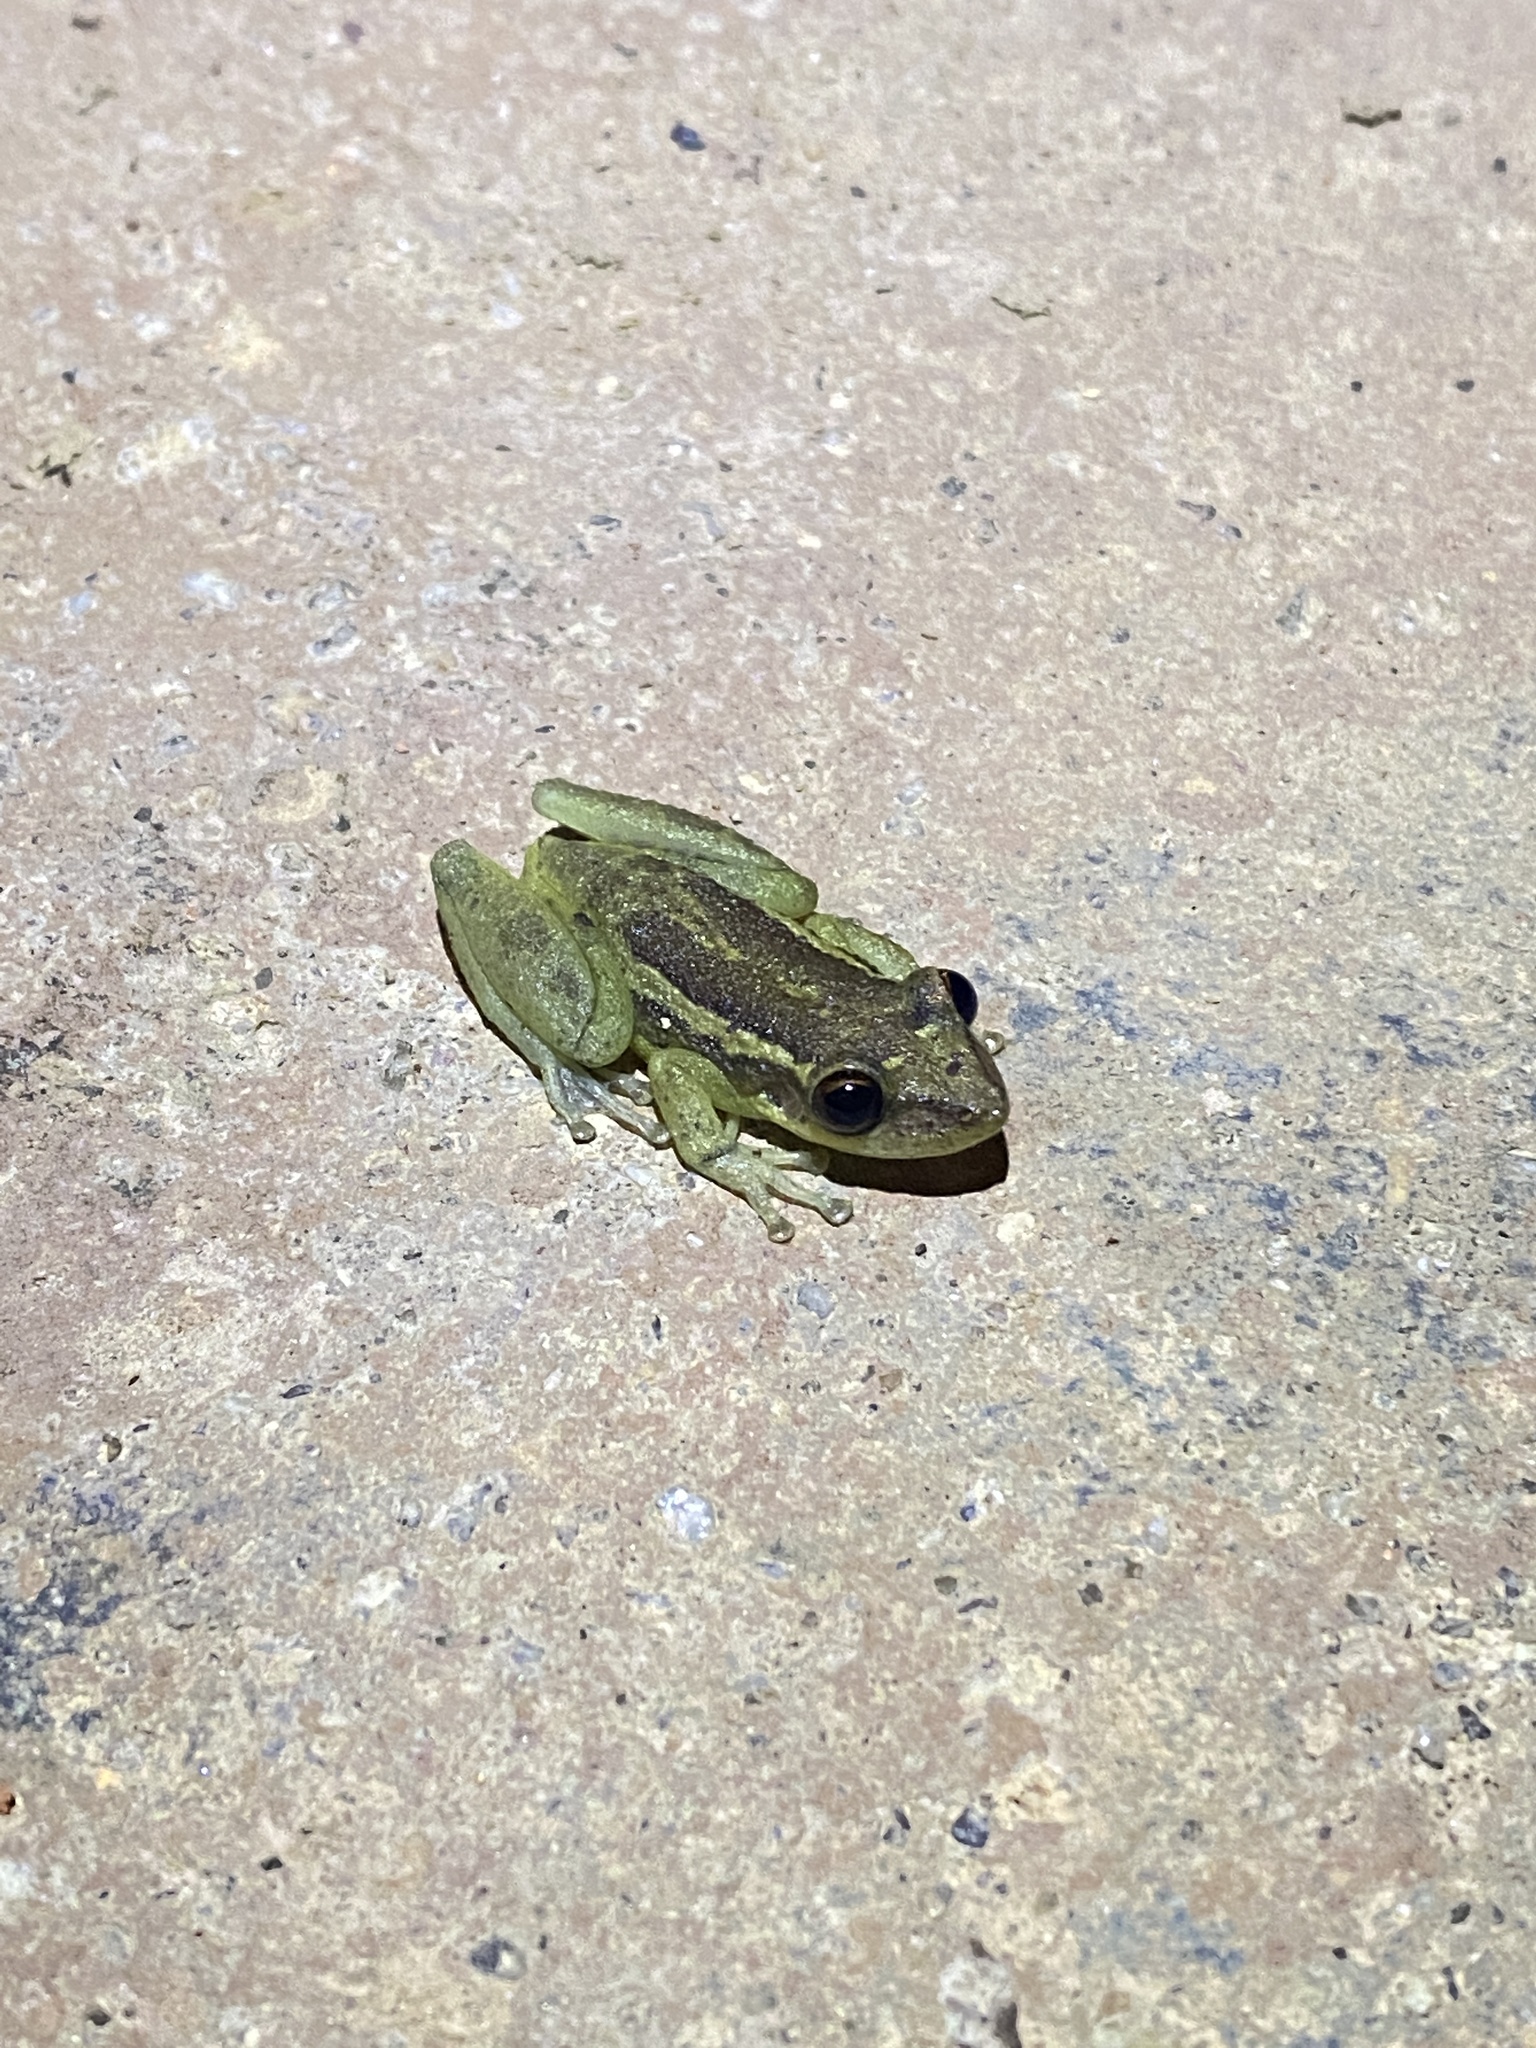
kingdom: Animalia
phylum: Chordata
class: Amphibia
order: Anura
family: Hylidae
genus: Scinax
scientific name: Scinax ruber
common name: Red snouted treefrog
